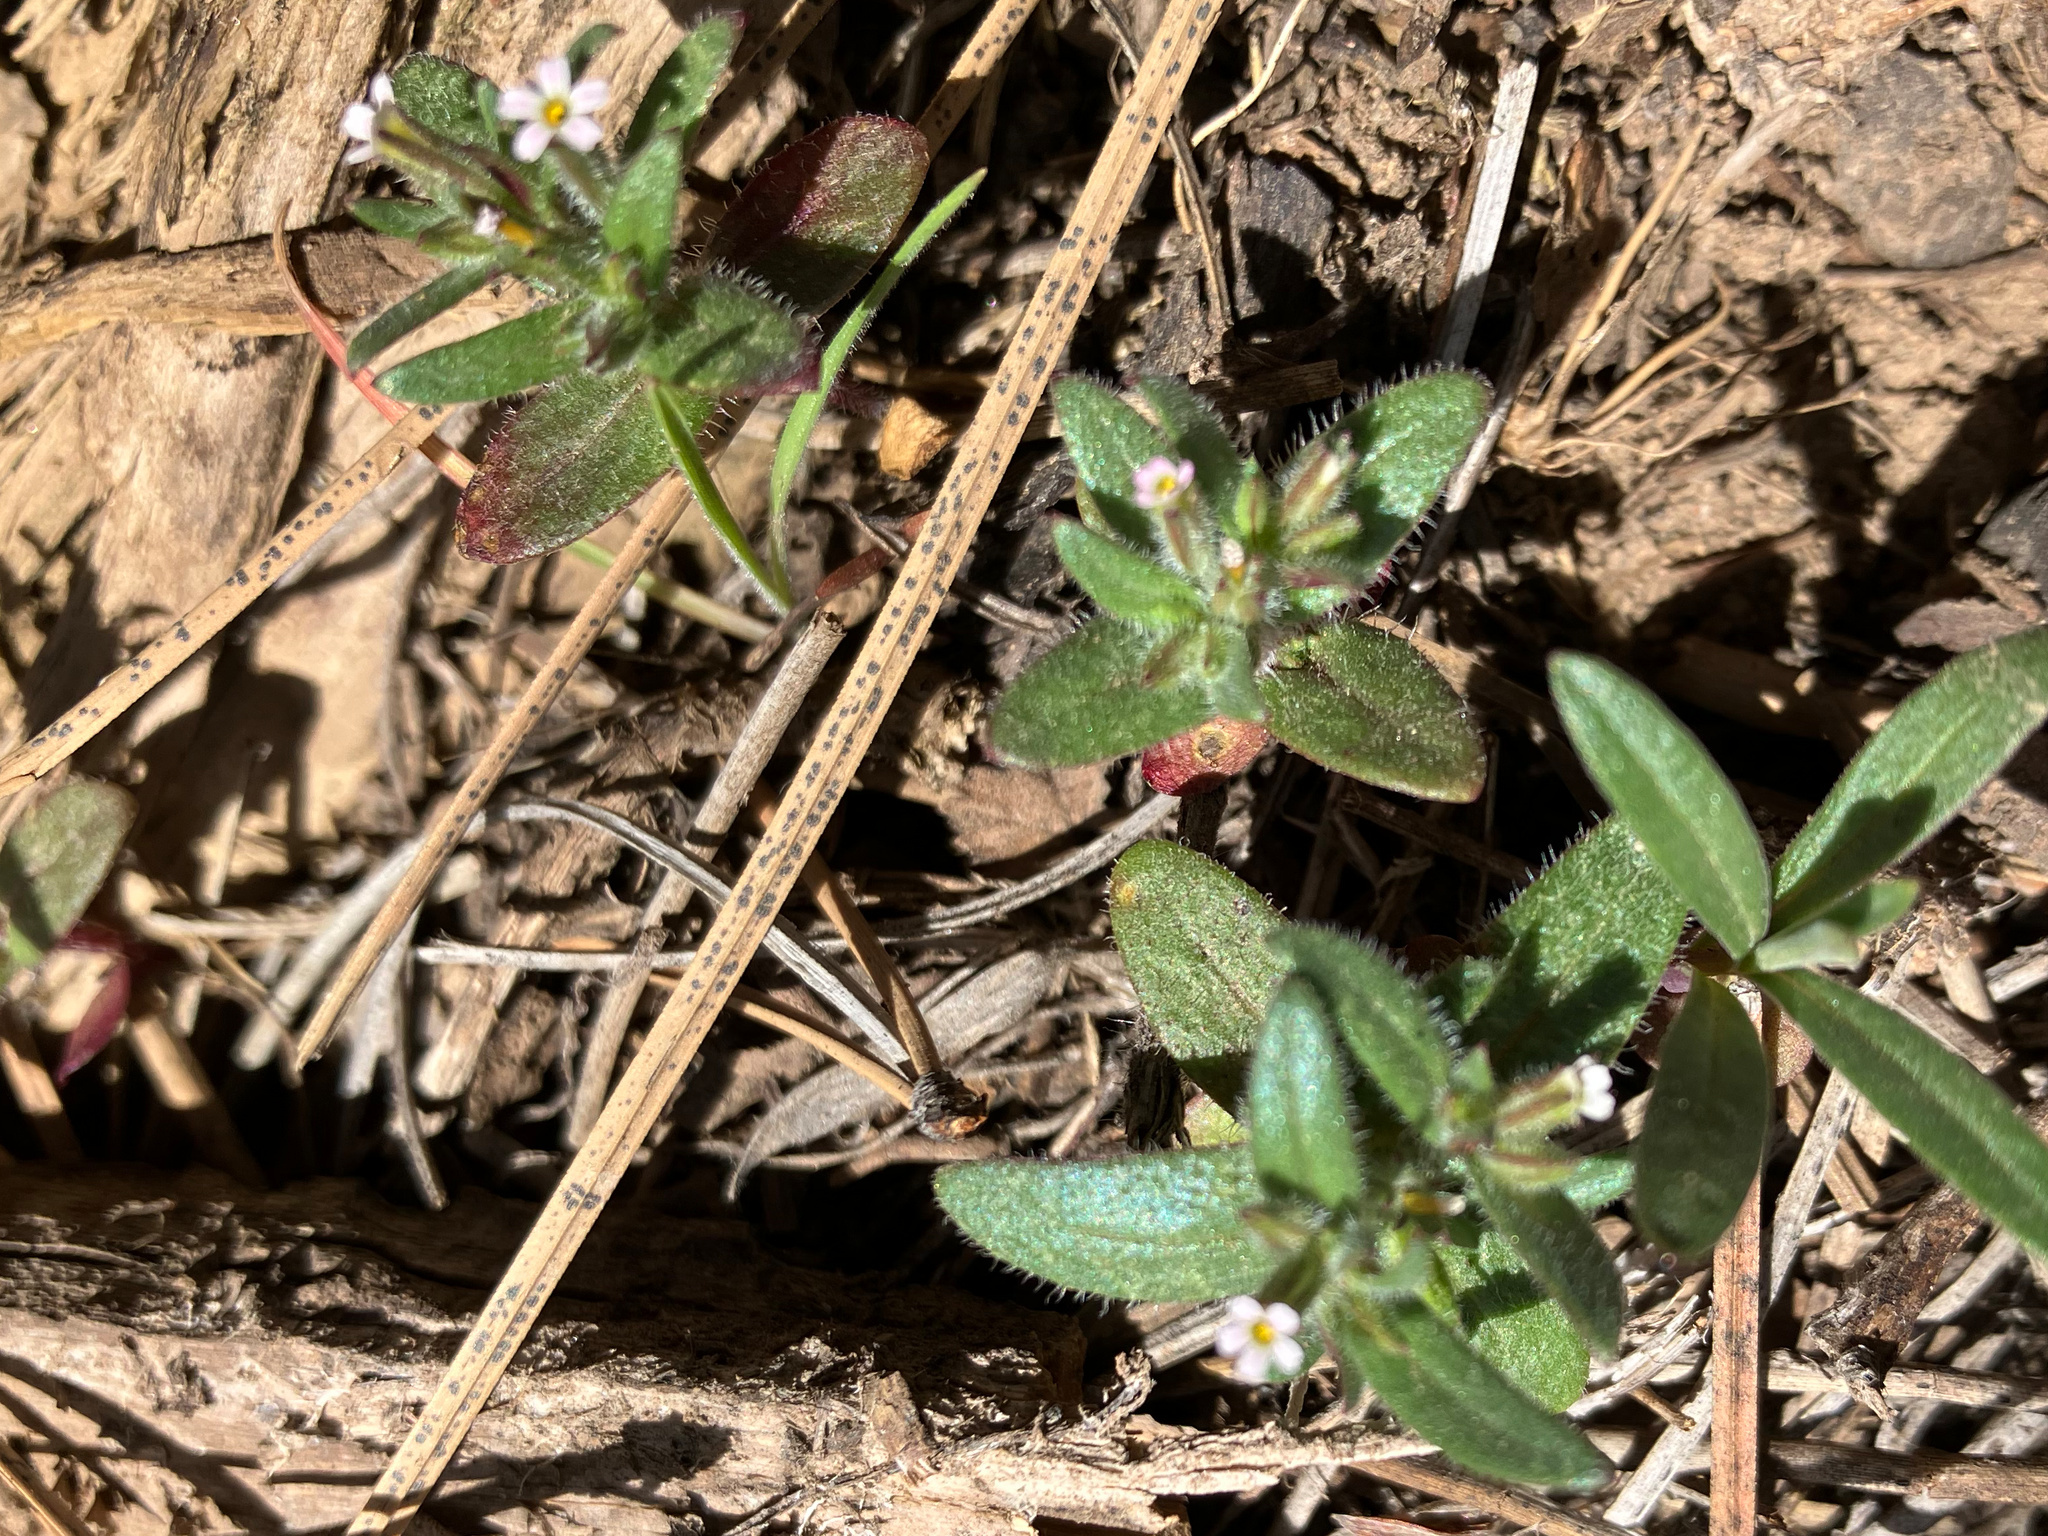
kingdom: Plantae
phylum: Tracheophyta
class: Magnoliopsida
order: Ericales
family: Polemoniaceae
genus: Phlox
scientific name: Phlox gracilis
